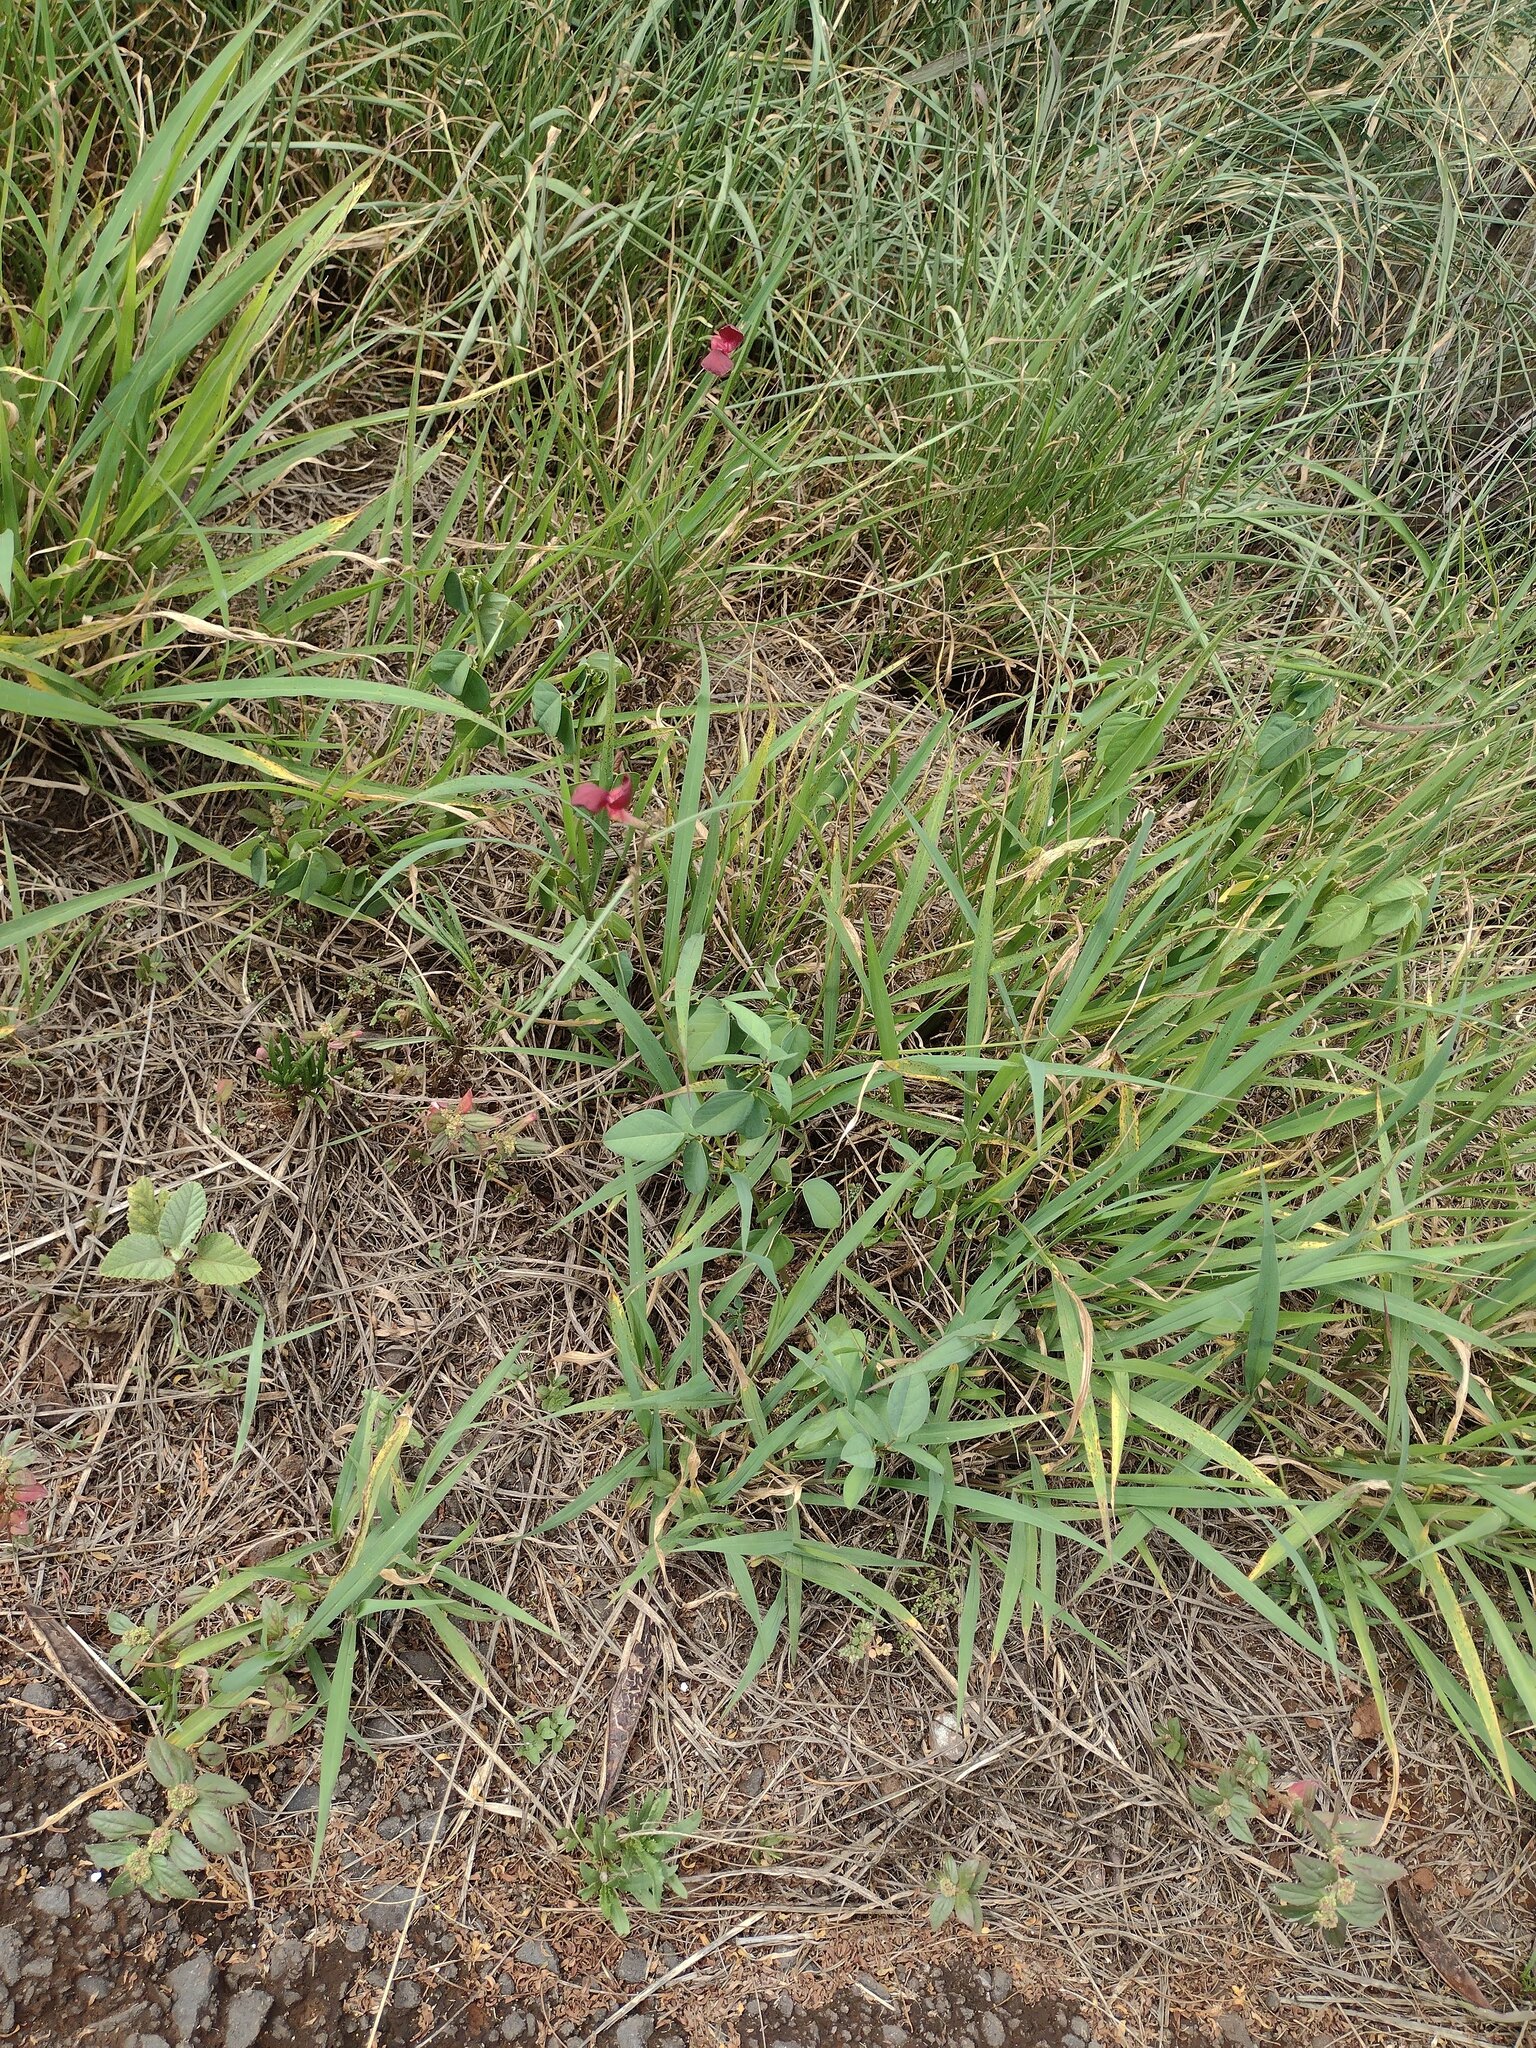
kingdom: Plantae
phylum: Tracheophyta
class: Magnoliopsida
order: Fabales
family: Fabaceae
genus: Macroptilium
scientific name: Macroptilium lathyroides
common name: Wild bushbean
